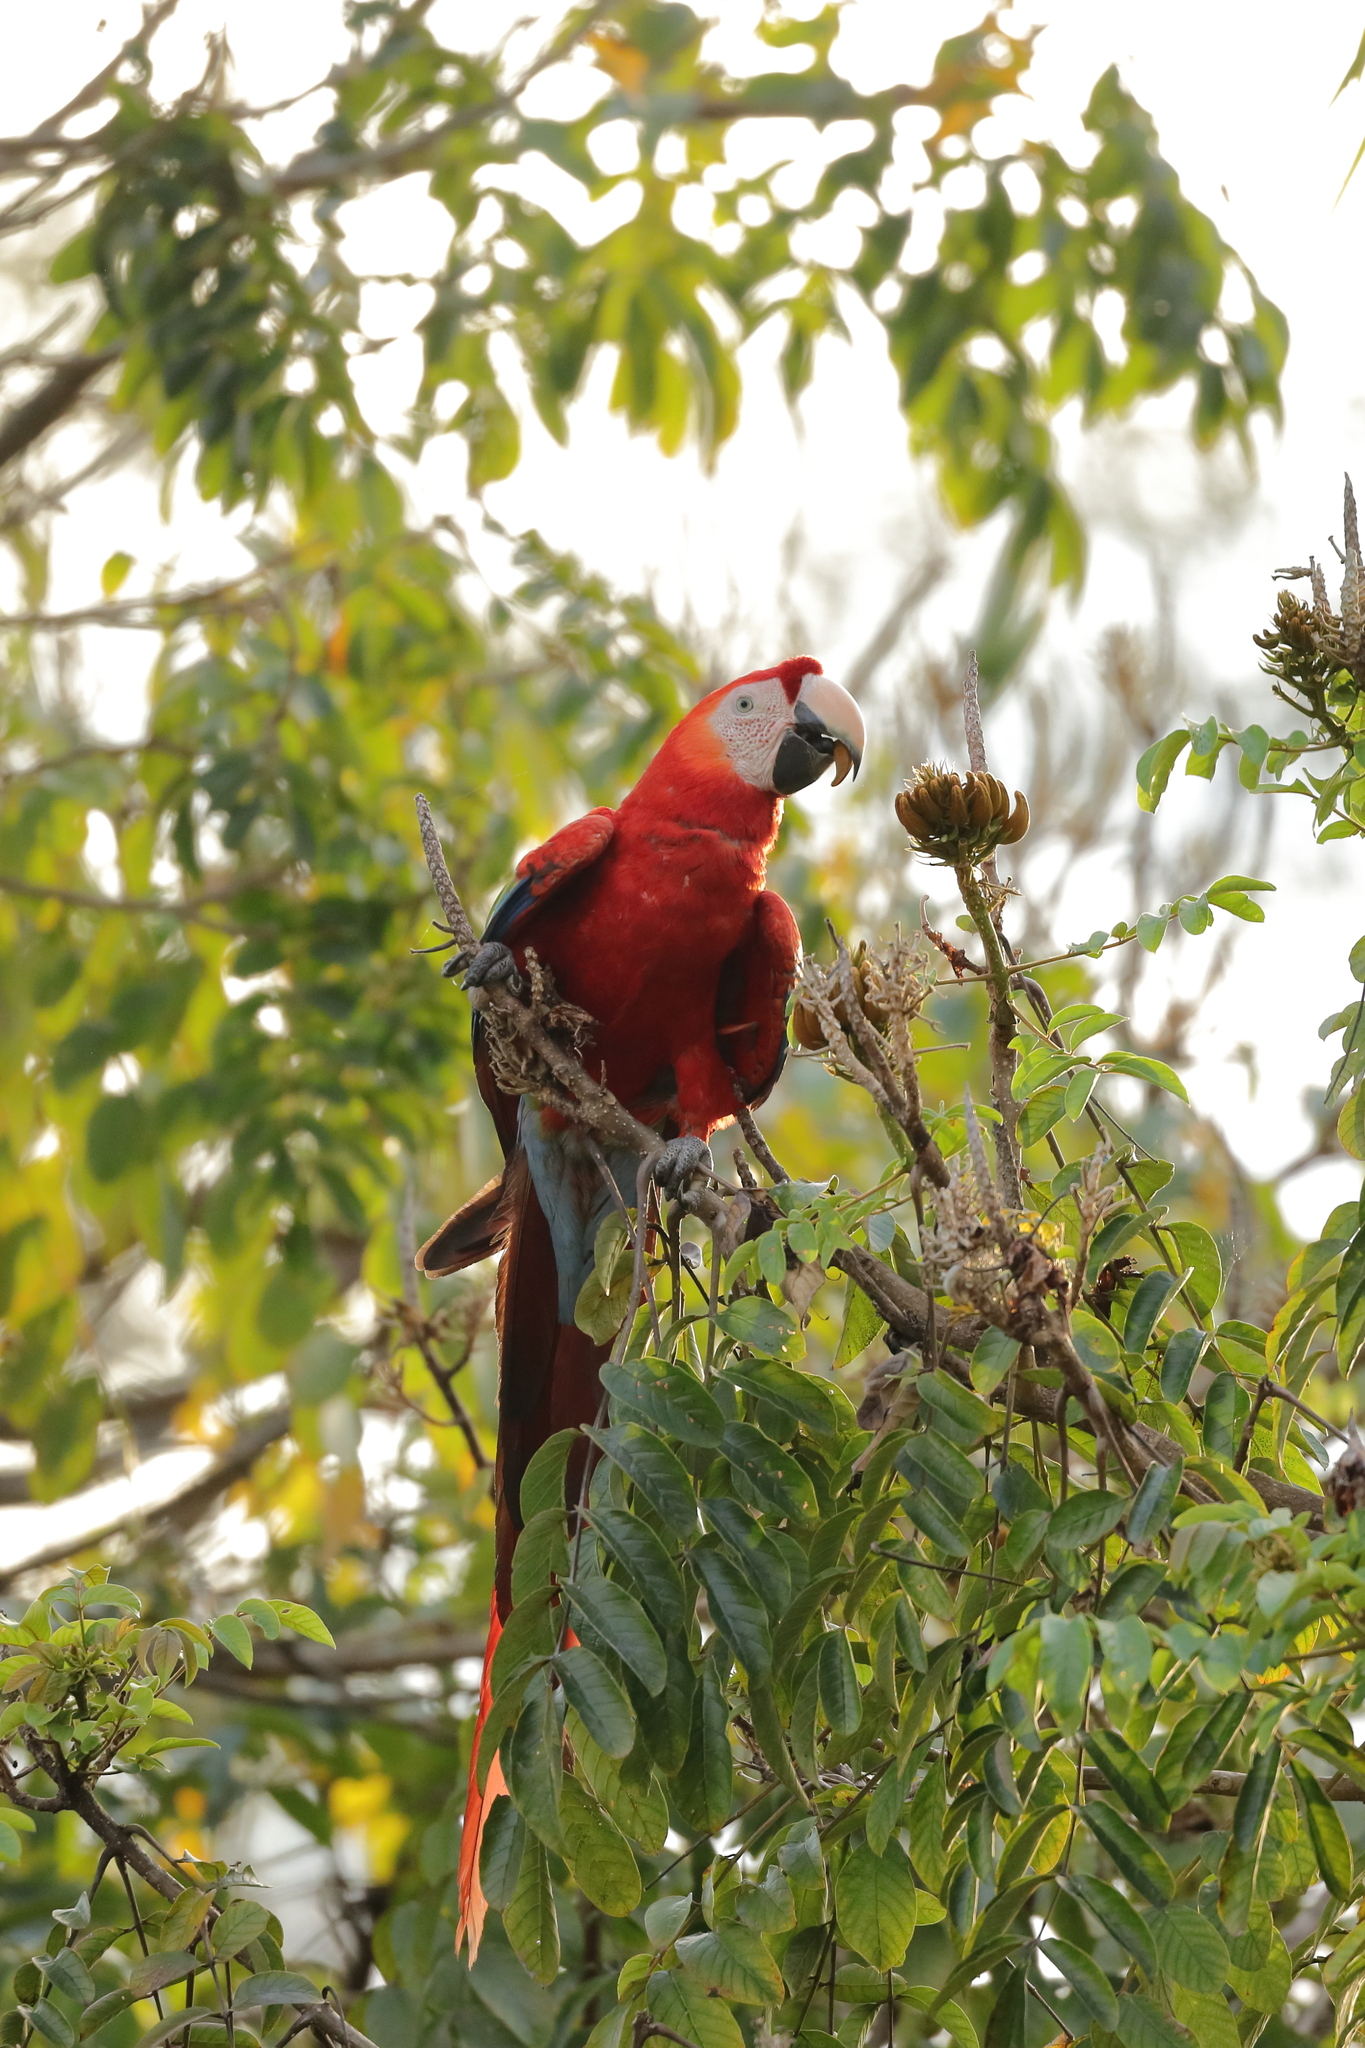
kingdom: Animalia
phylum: Chordata
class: Aves
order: Psittaciformes
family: Psittacidae
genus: Ara
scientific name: Ara macao
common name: Scarlet macaw
